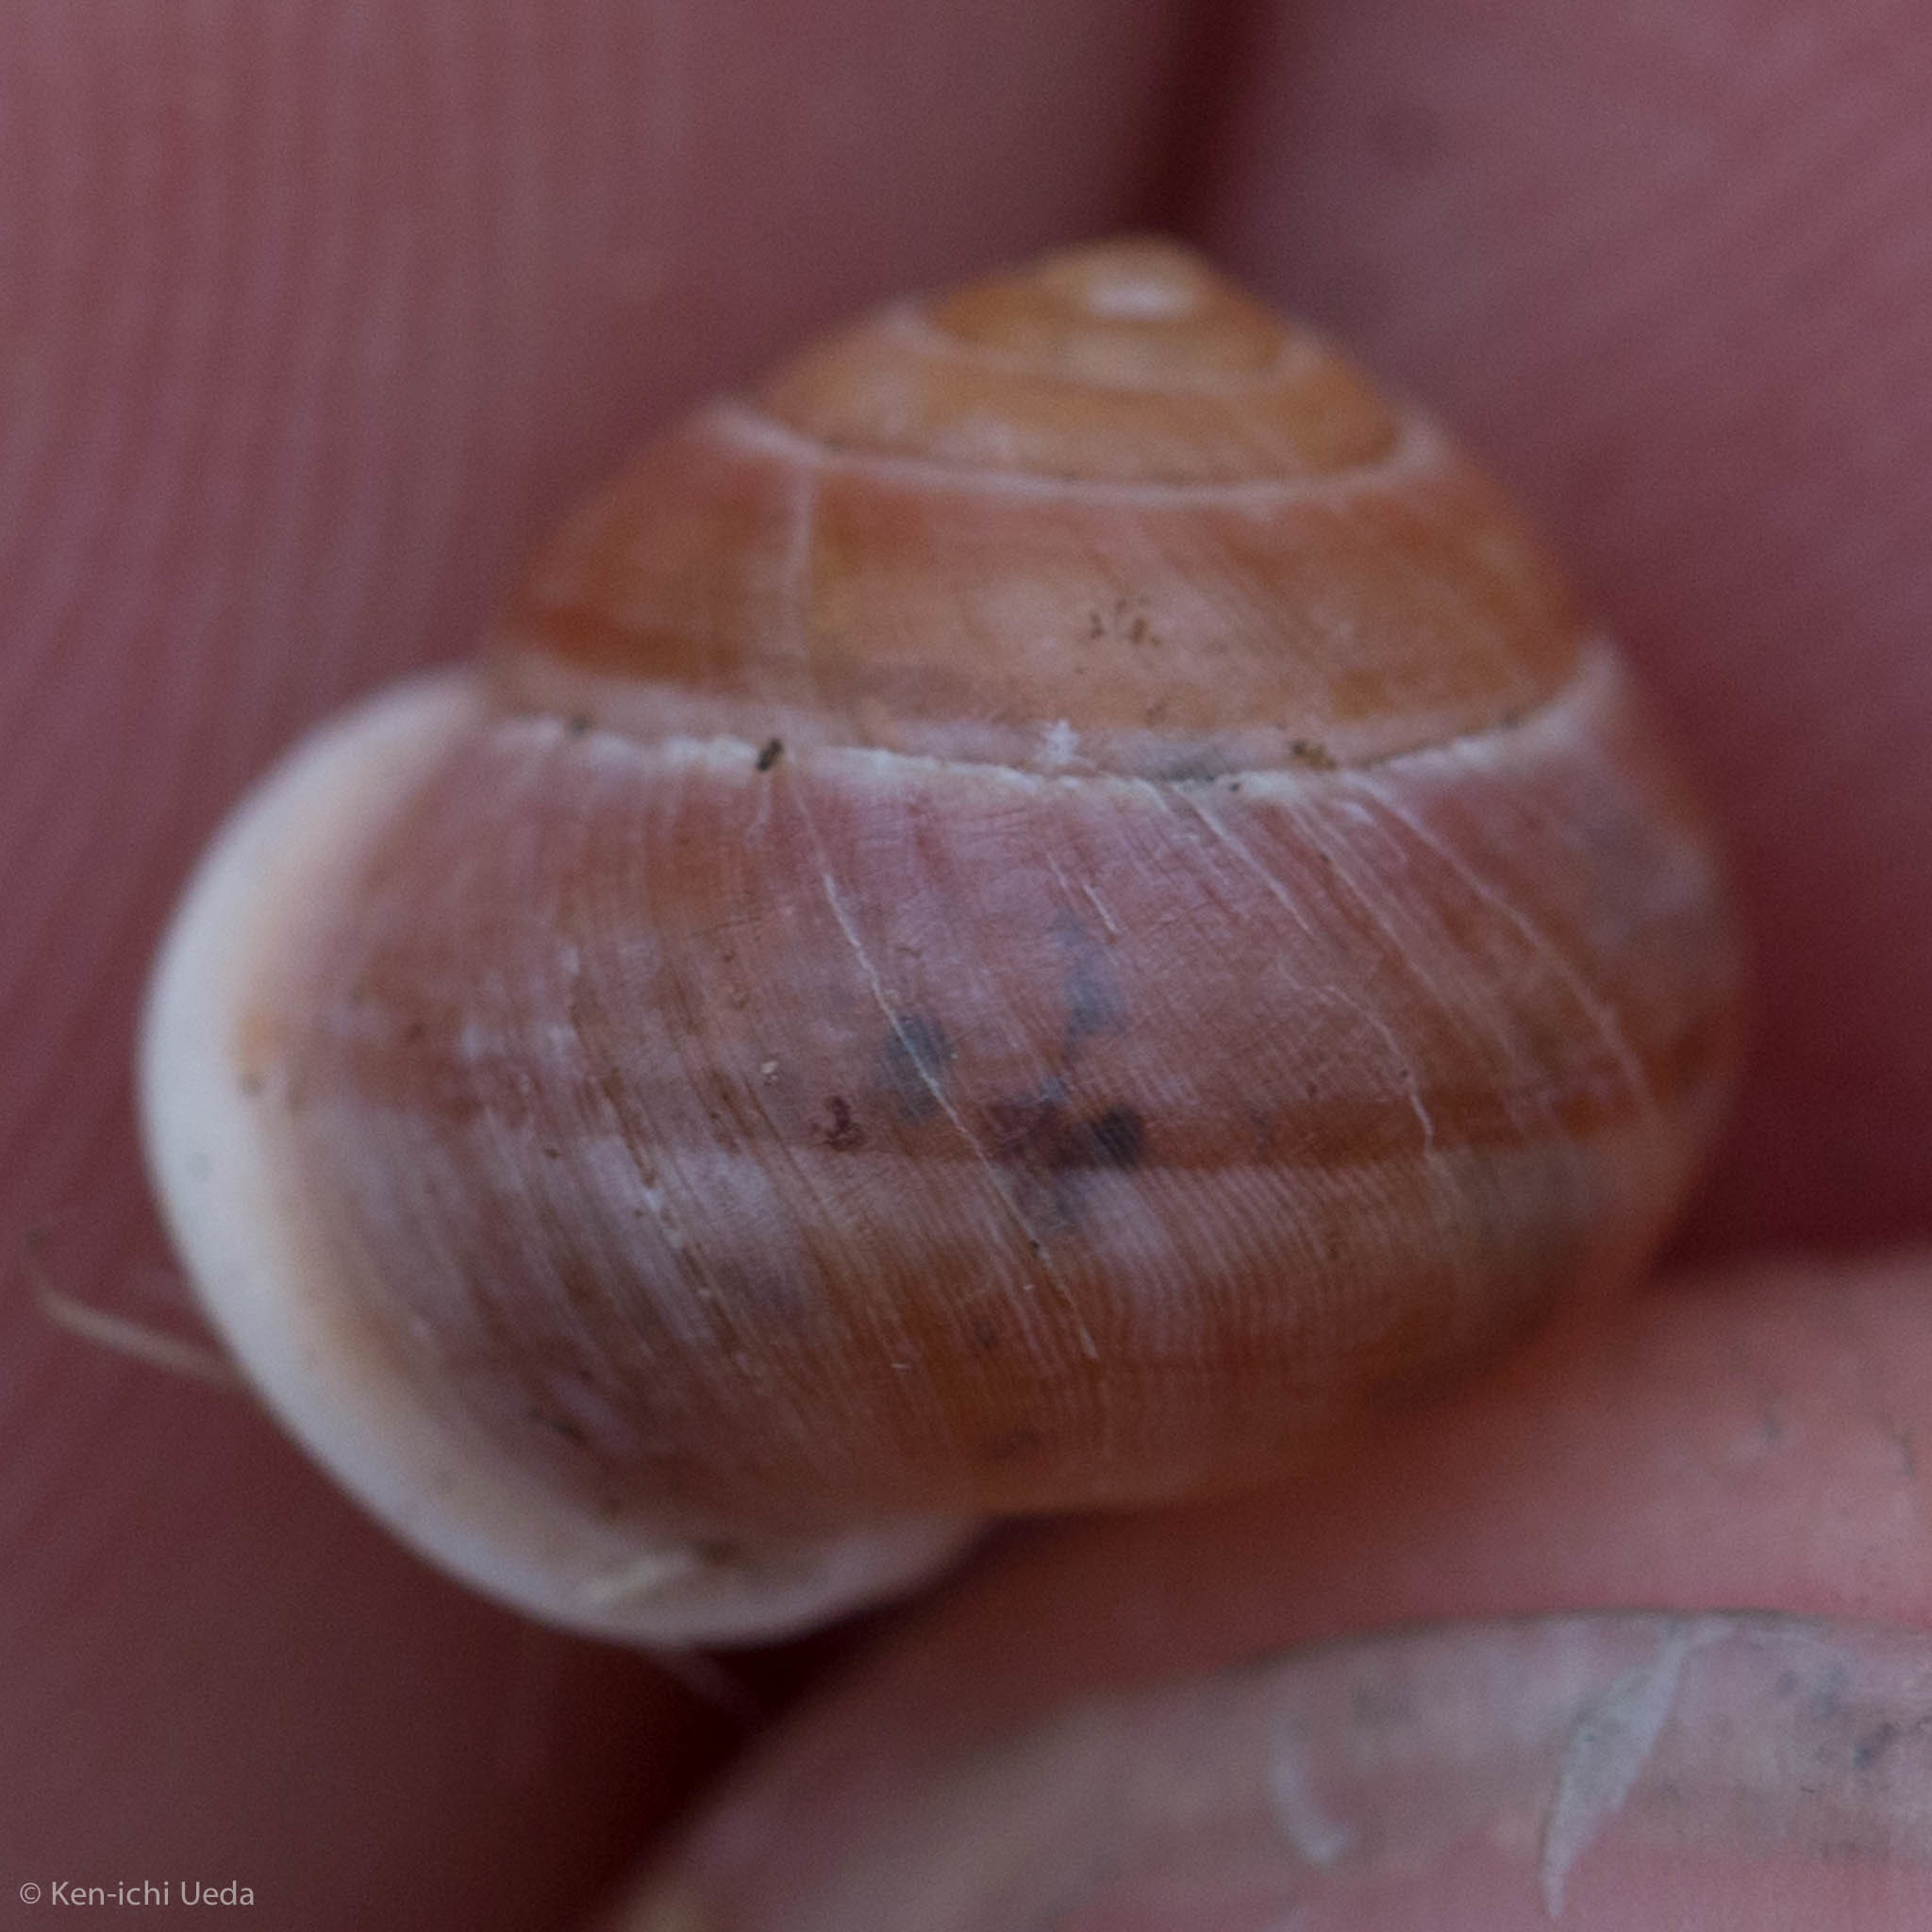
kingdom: Animalia
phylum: Mollusca
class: Gastropoda
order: Cycloneritida
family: Helicinidae
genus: Helicina
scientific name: Helicina orbiculata
